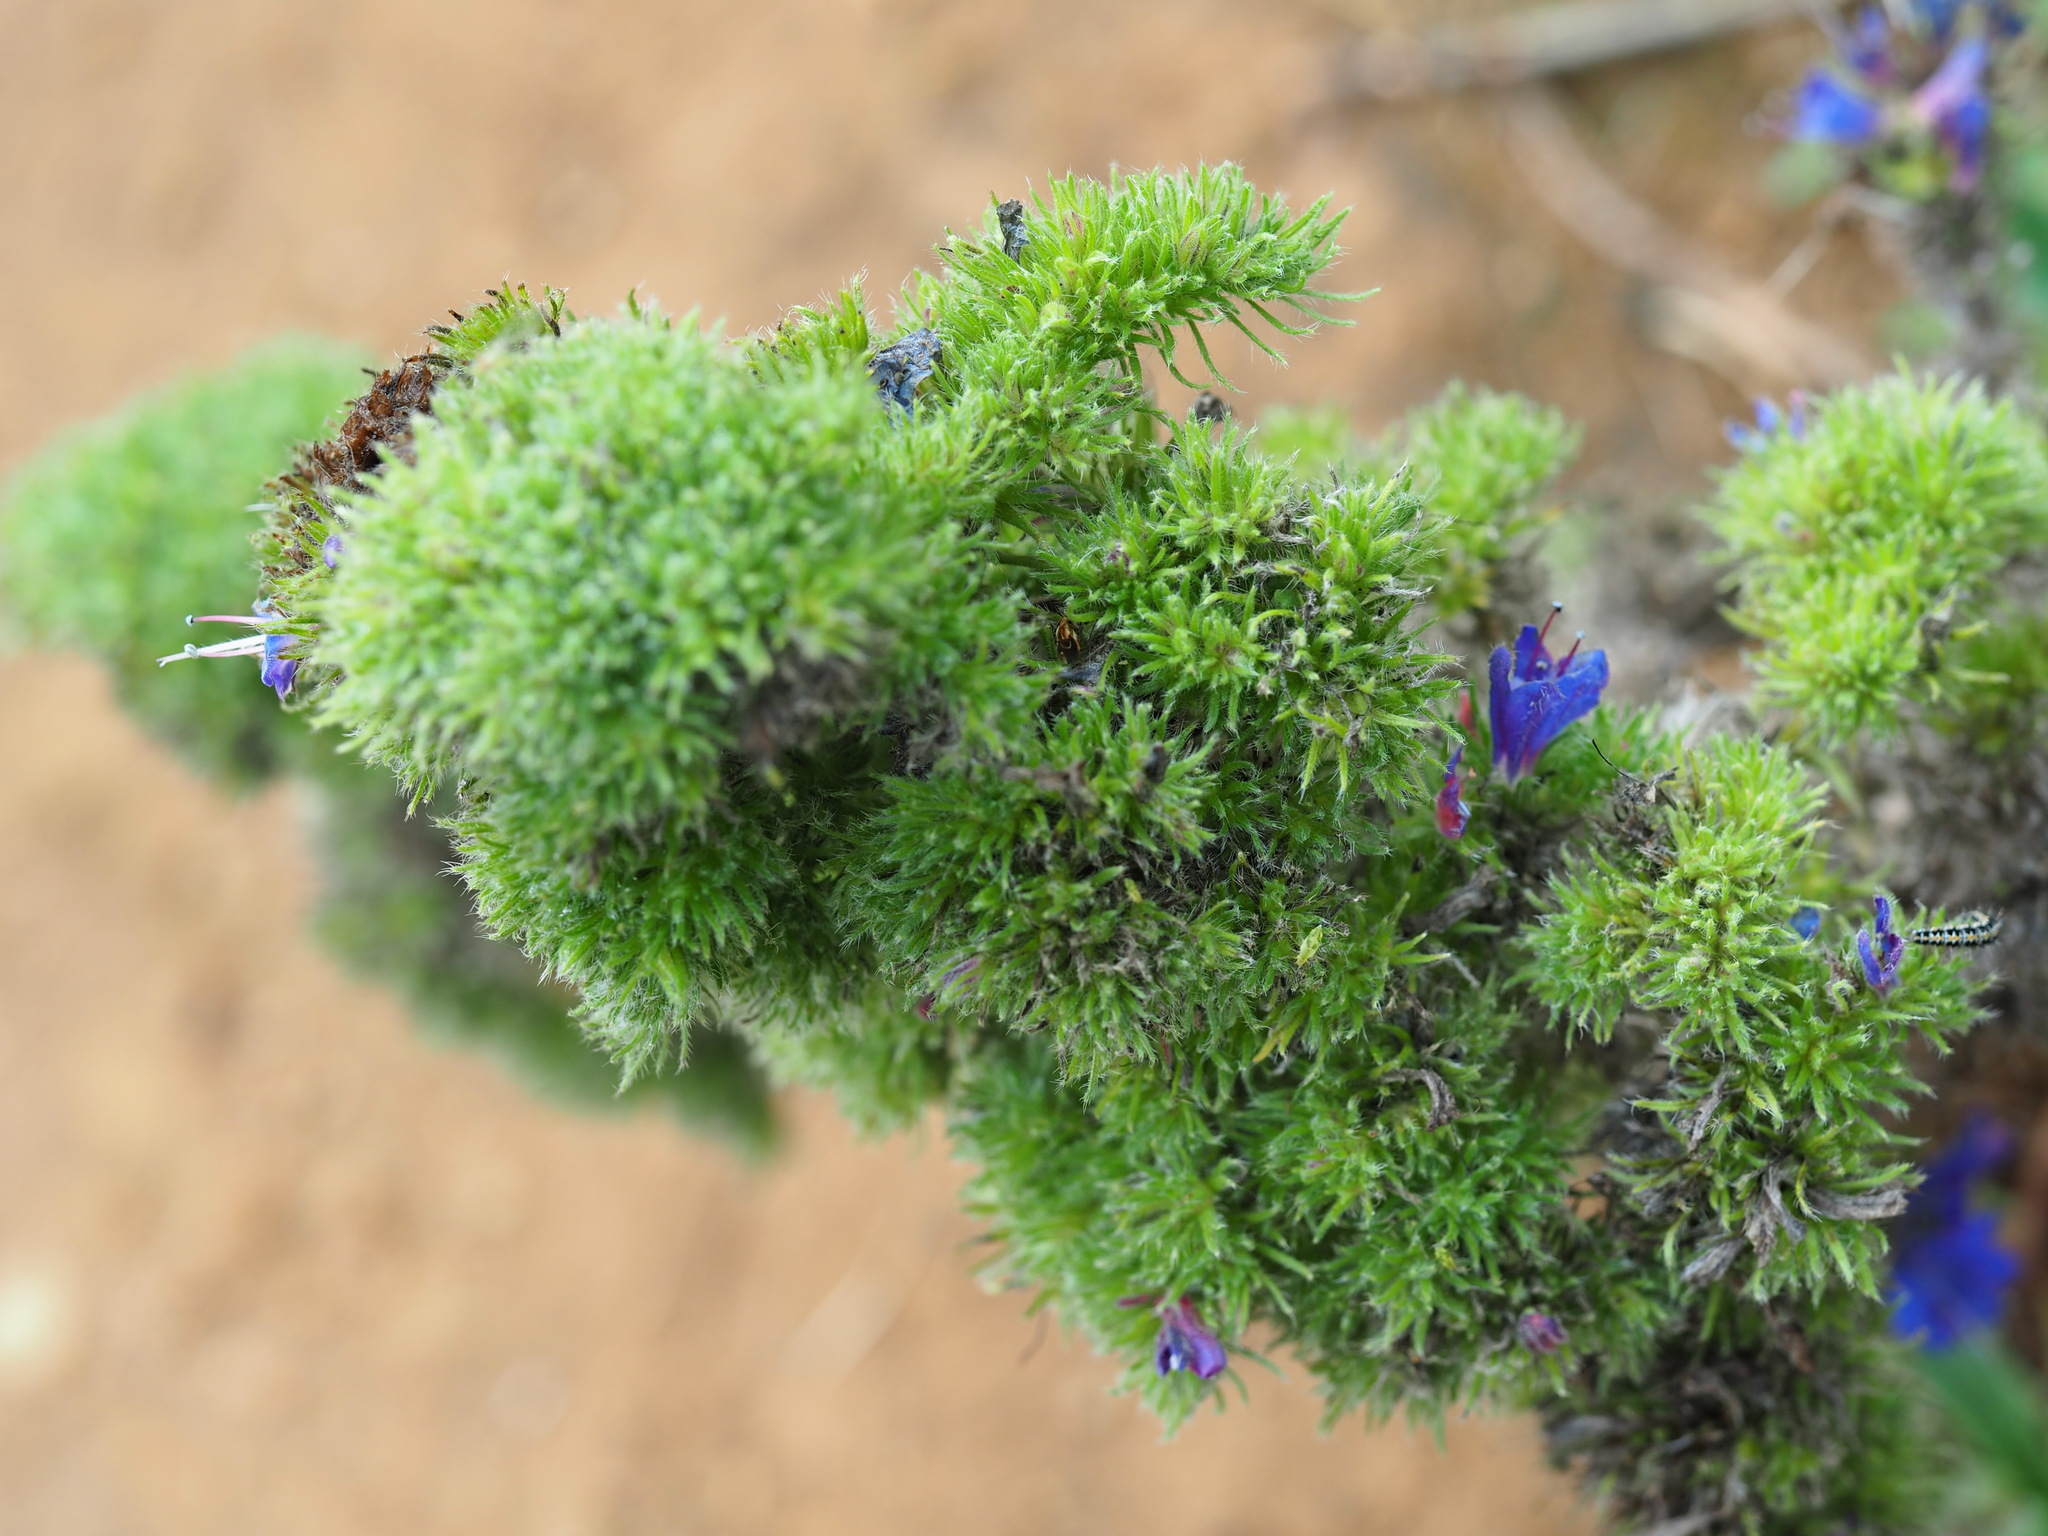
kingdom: Plantae
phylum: Tracheophyta
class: Magnoliopsida
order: Boraginales
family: Boraginaceae
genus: Echium
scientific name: Echium vulgare
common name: Common viper's bugloss
